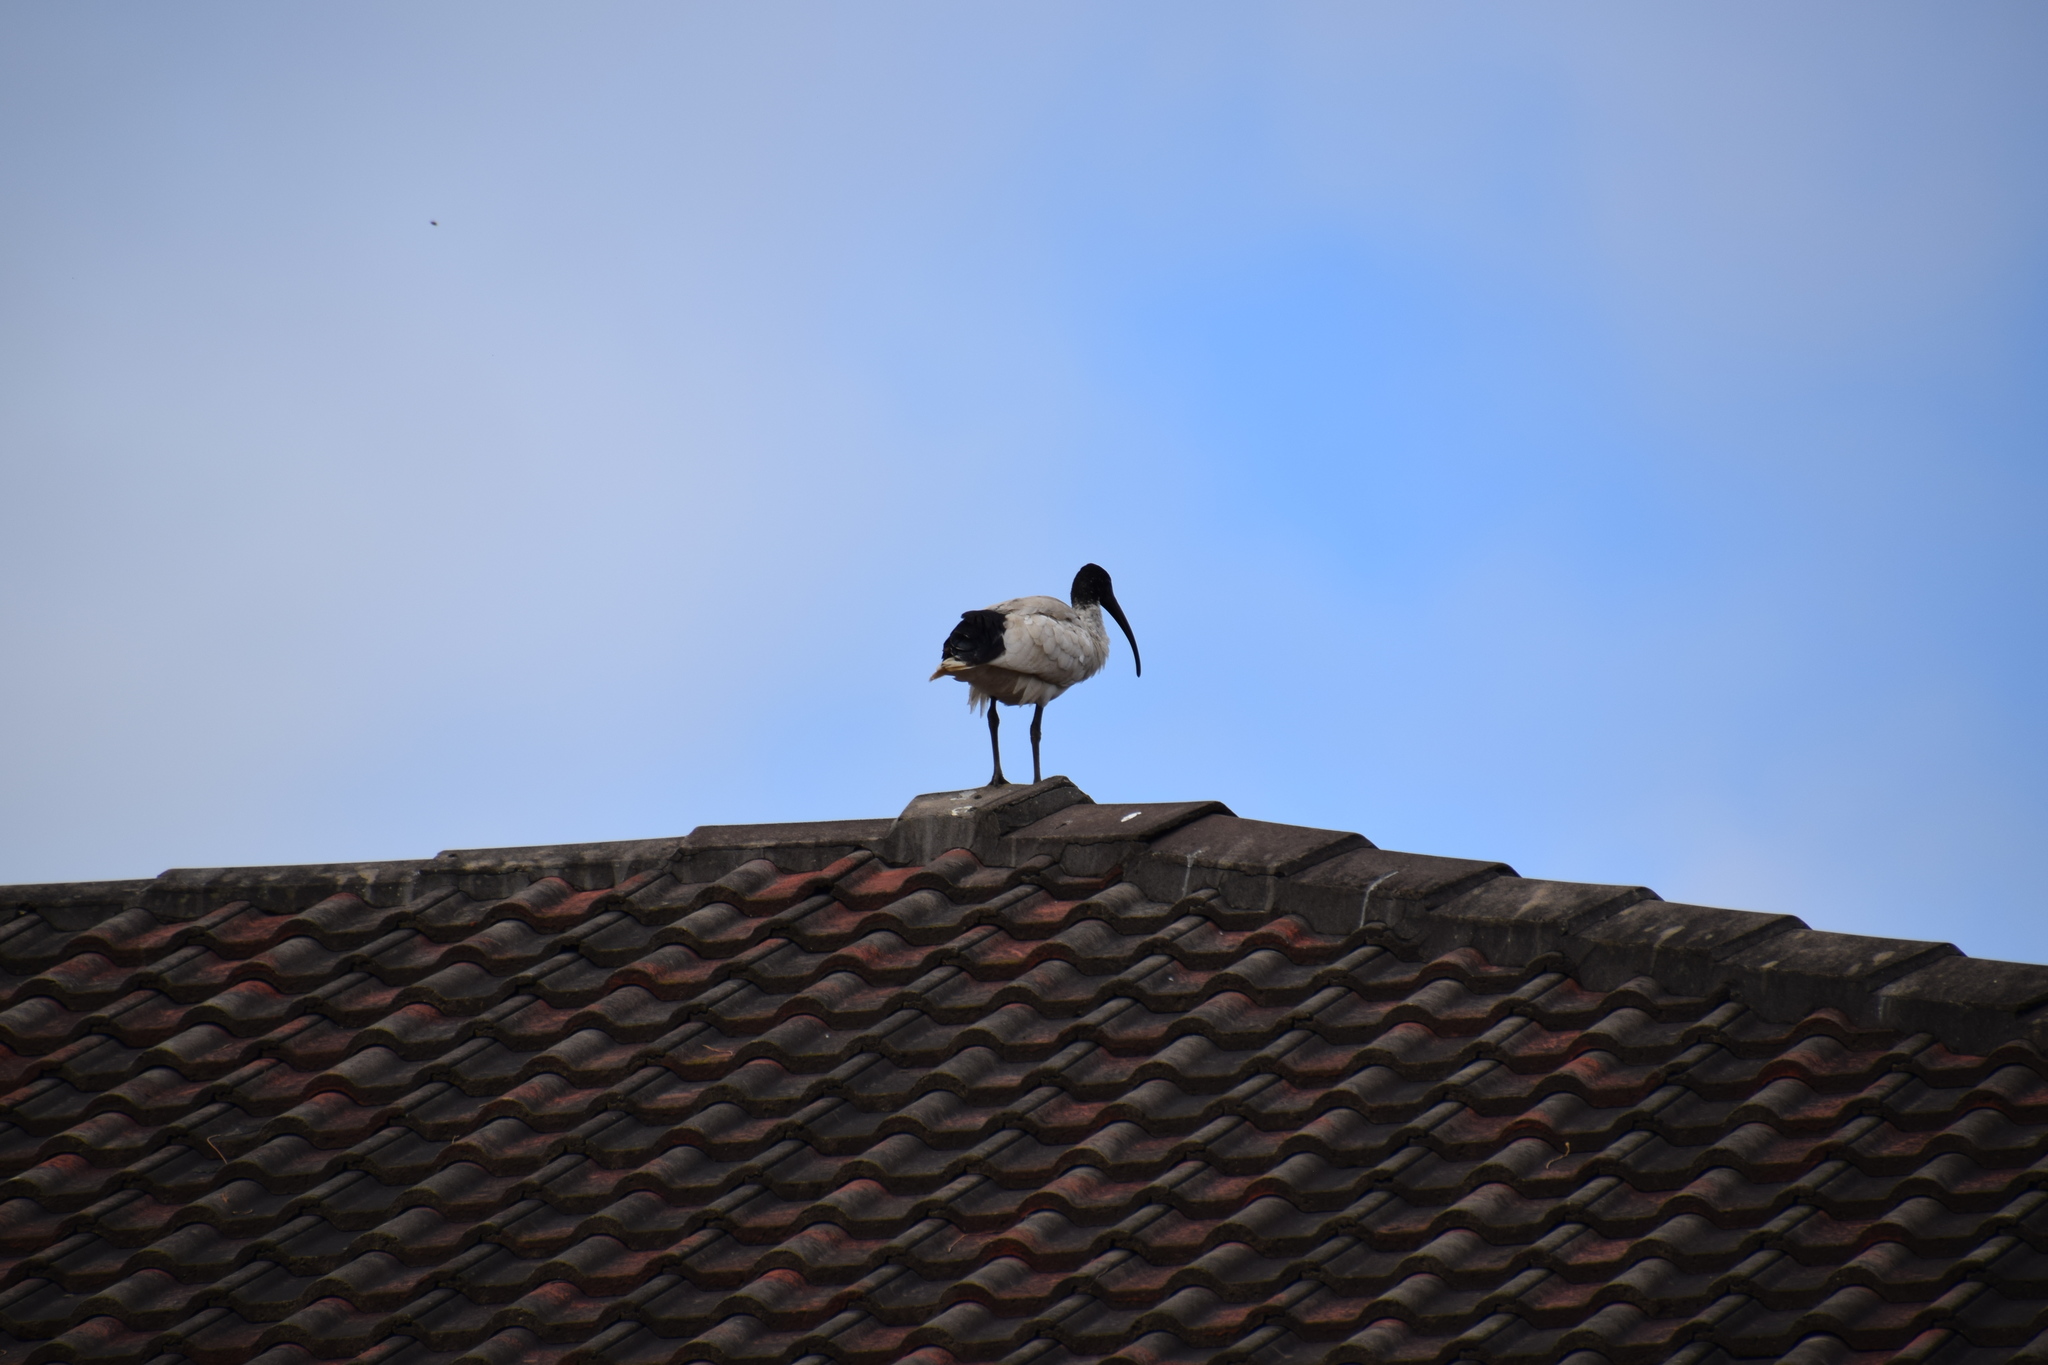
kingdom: Animalia
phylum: Chordata
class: Aves
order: Pelecaniformes
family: Threskiornithidae
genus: Threskiornis
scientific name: Threskiornis molucca
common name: Australian white ibis
